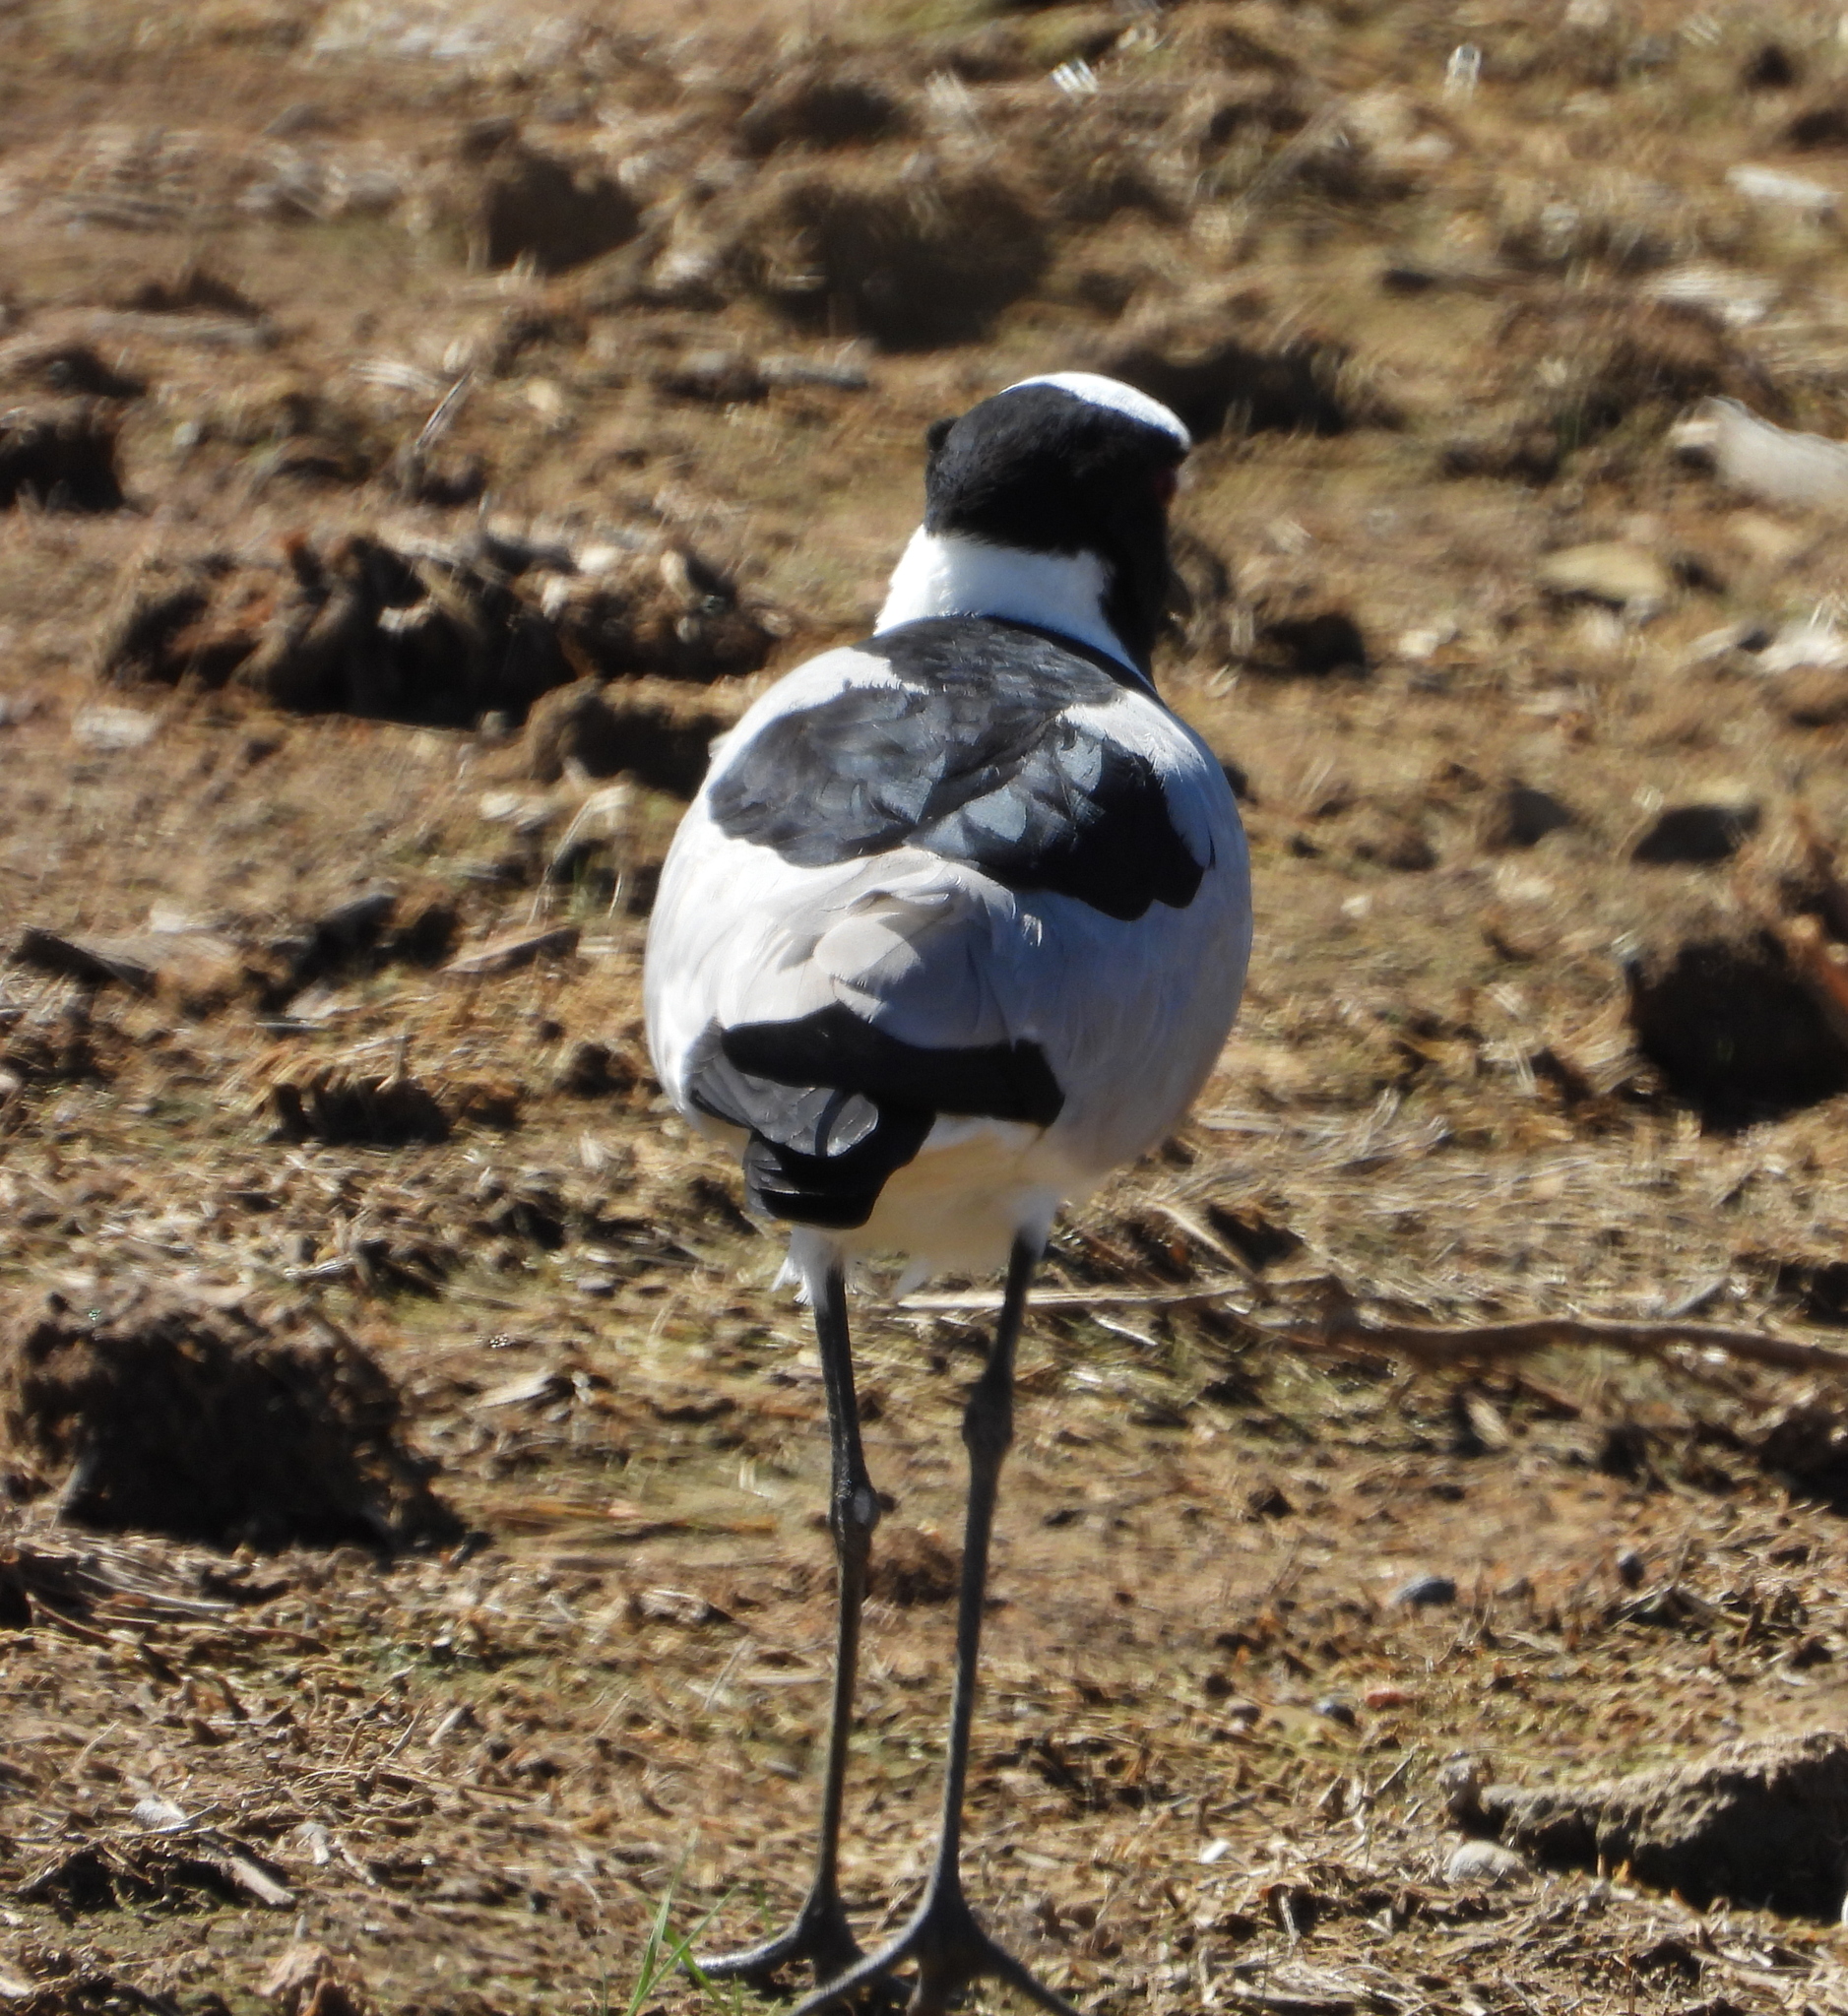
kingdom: Animalia
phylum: Chordata
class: Aves
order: Charadriiformes
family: Charadriidae
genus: Vanellus
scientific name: Vanellus armatus
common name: Blacksmith lapwing
